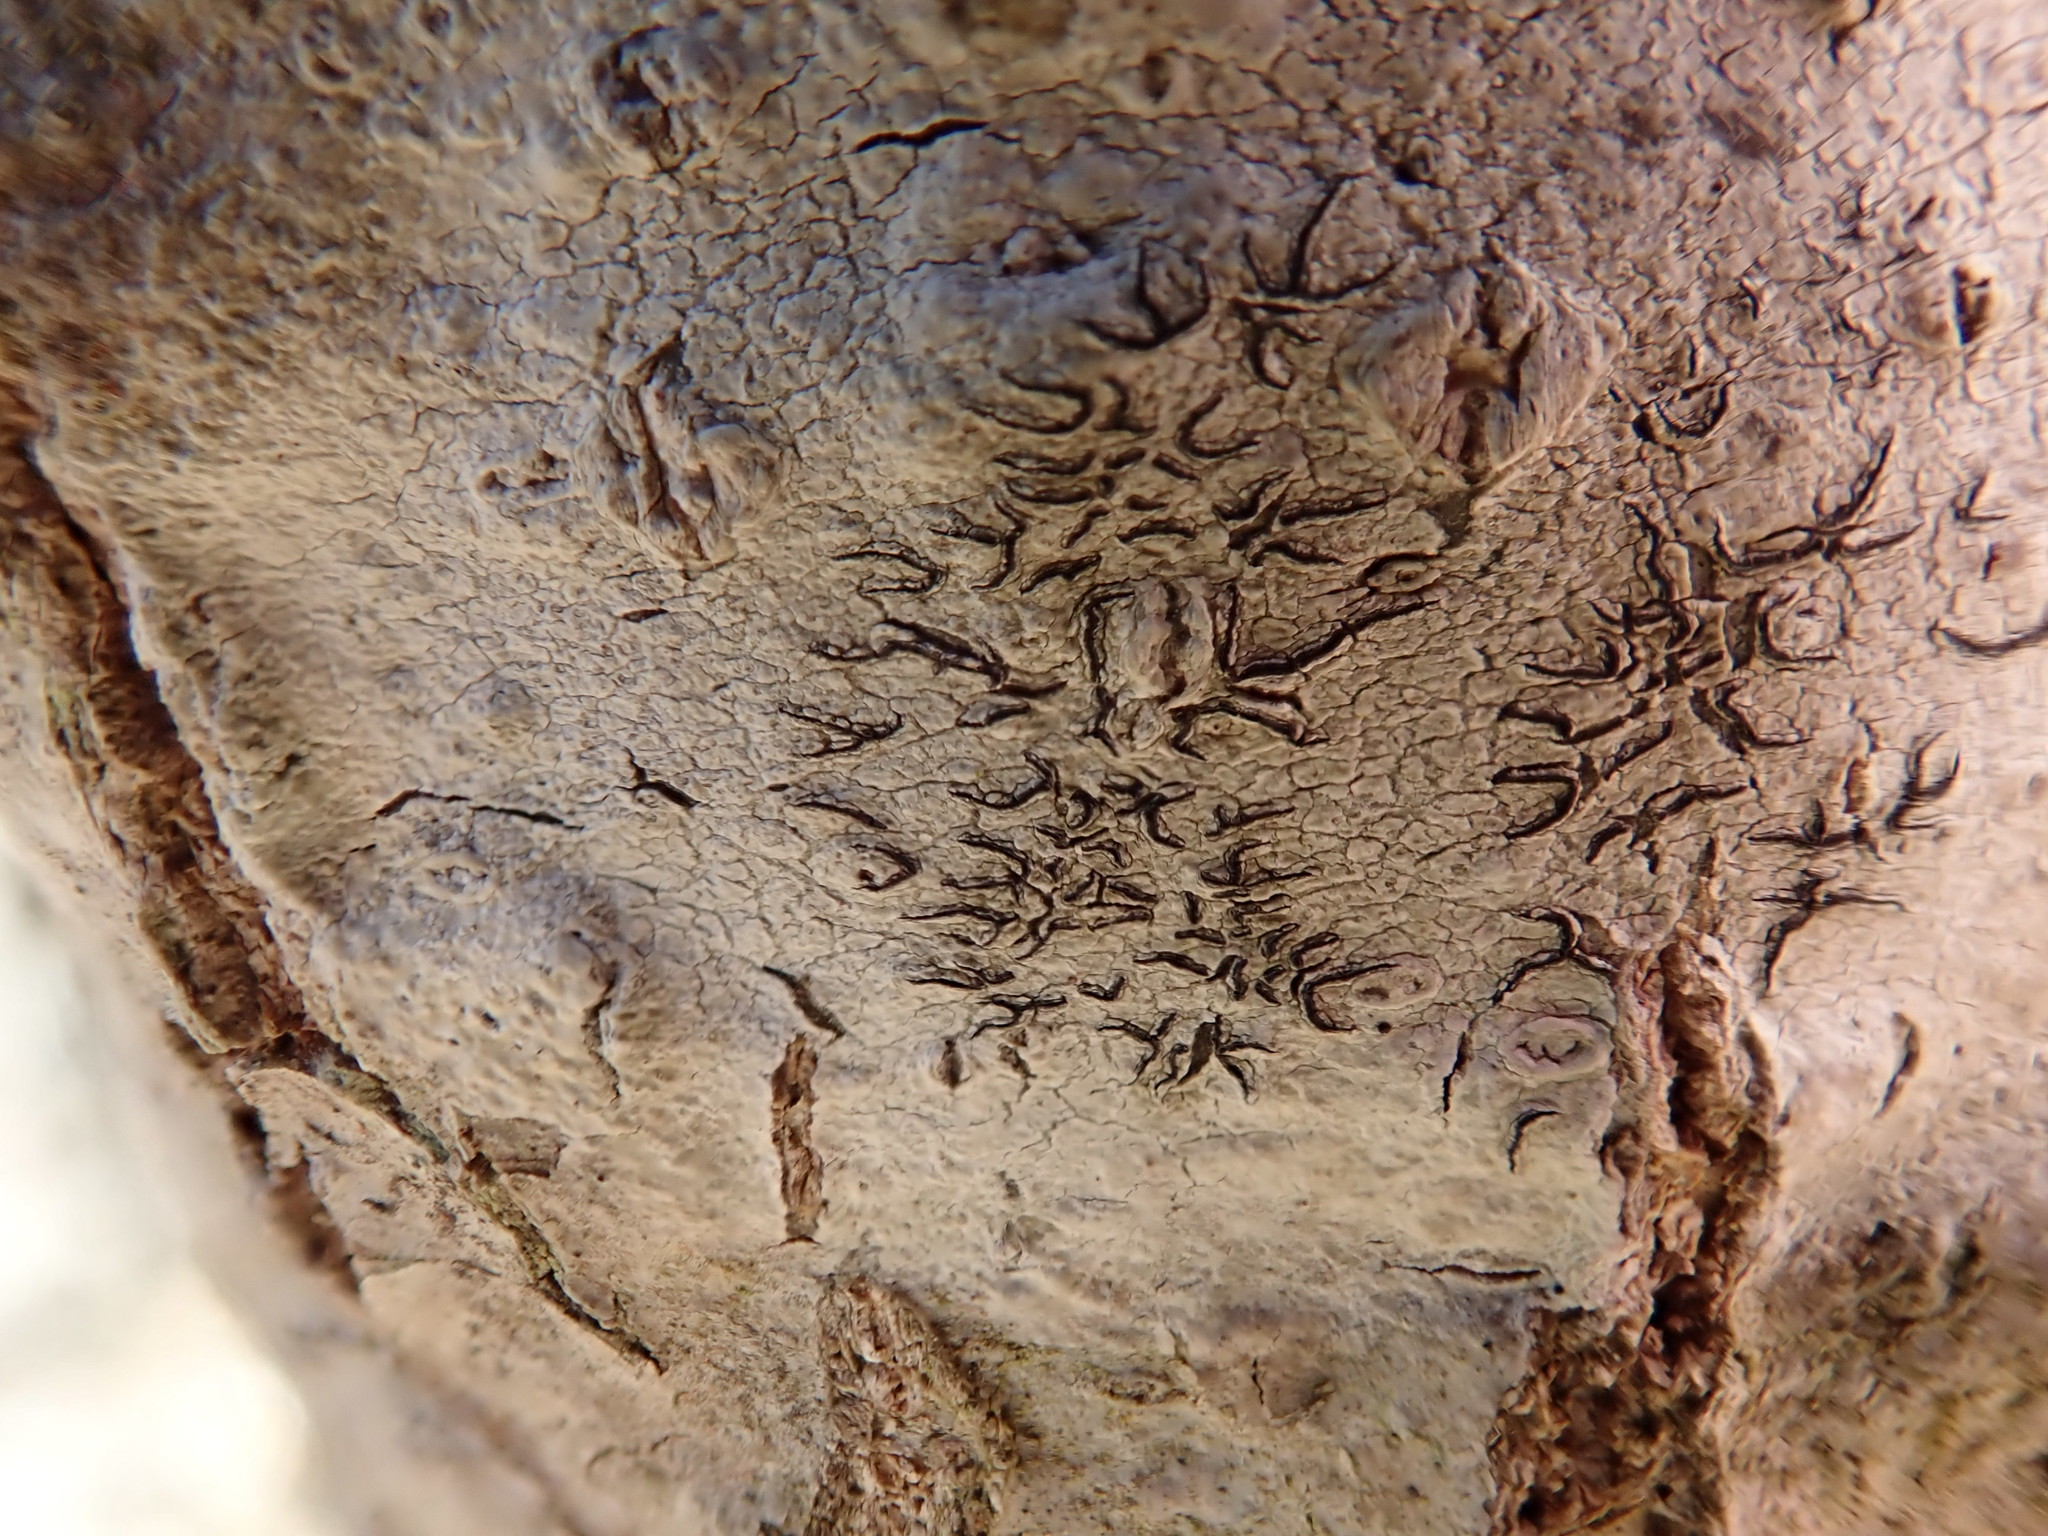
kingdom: Fungi
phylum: Ascomycota
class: Lecanoromycetes
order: Ostropales
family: Graphidaceae
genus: Graphis
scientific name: Graphis scripta
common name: Script lichen
